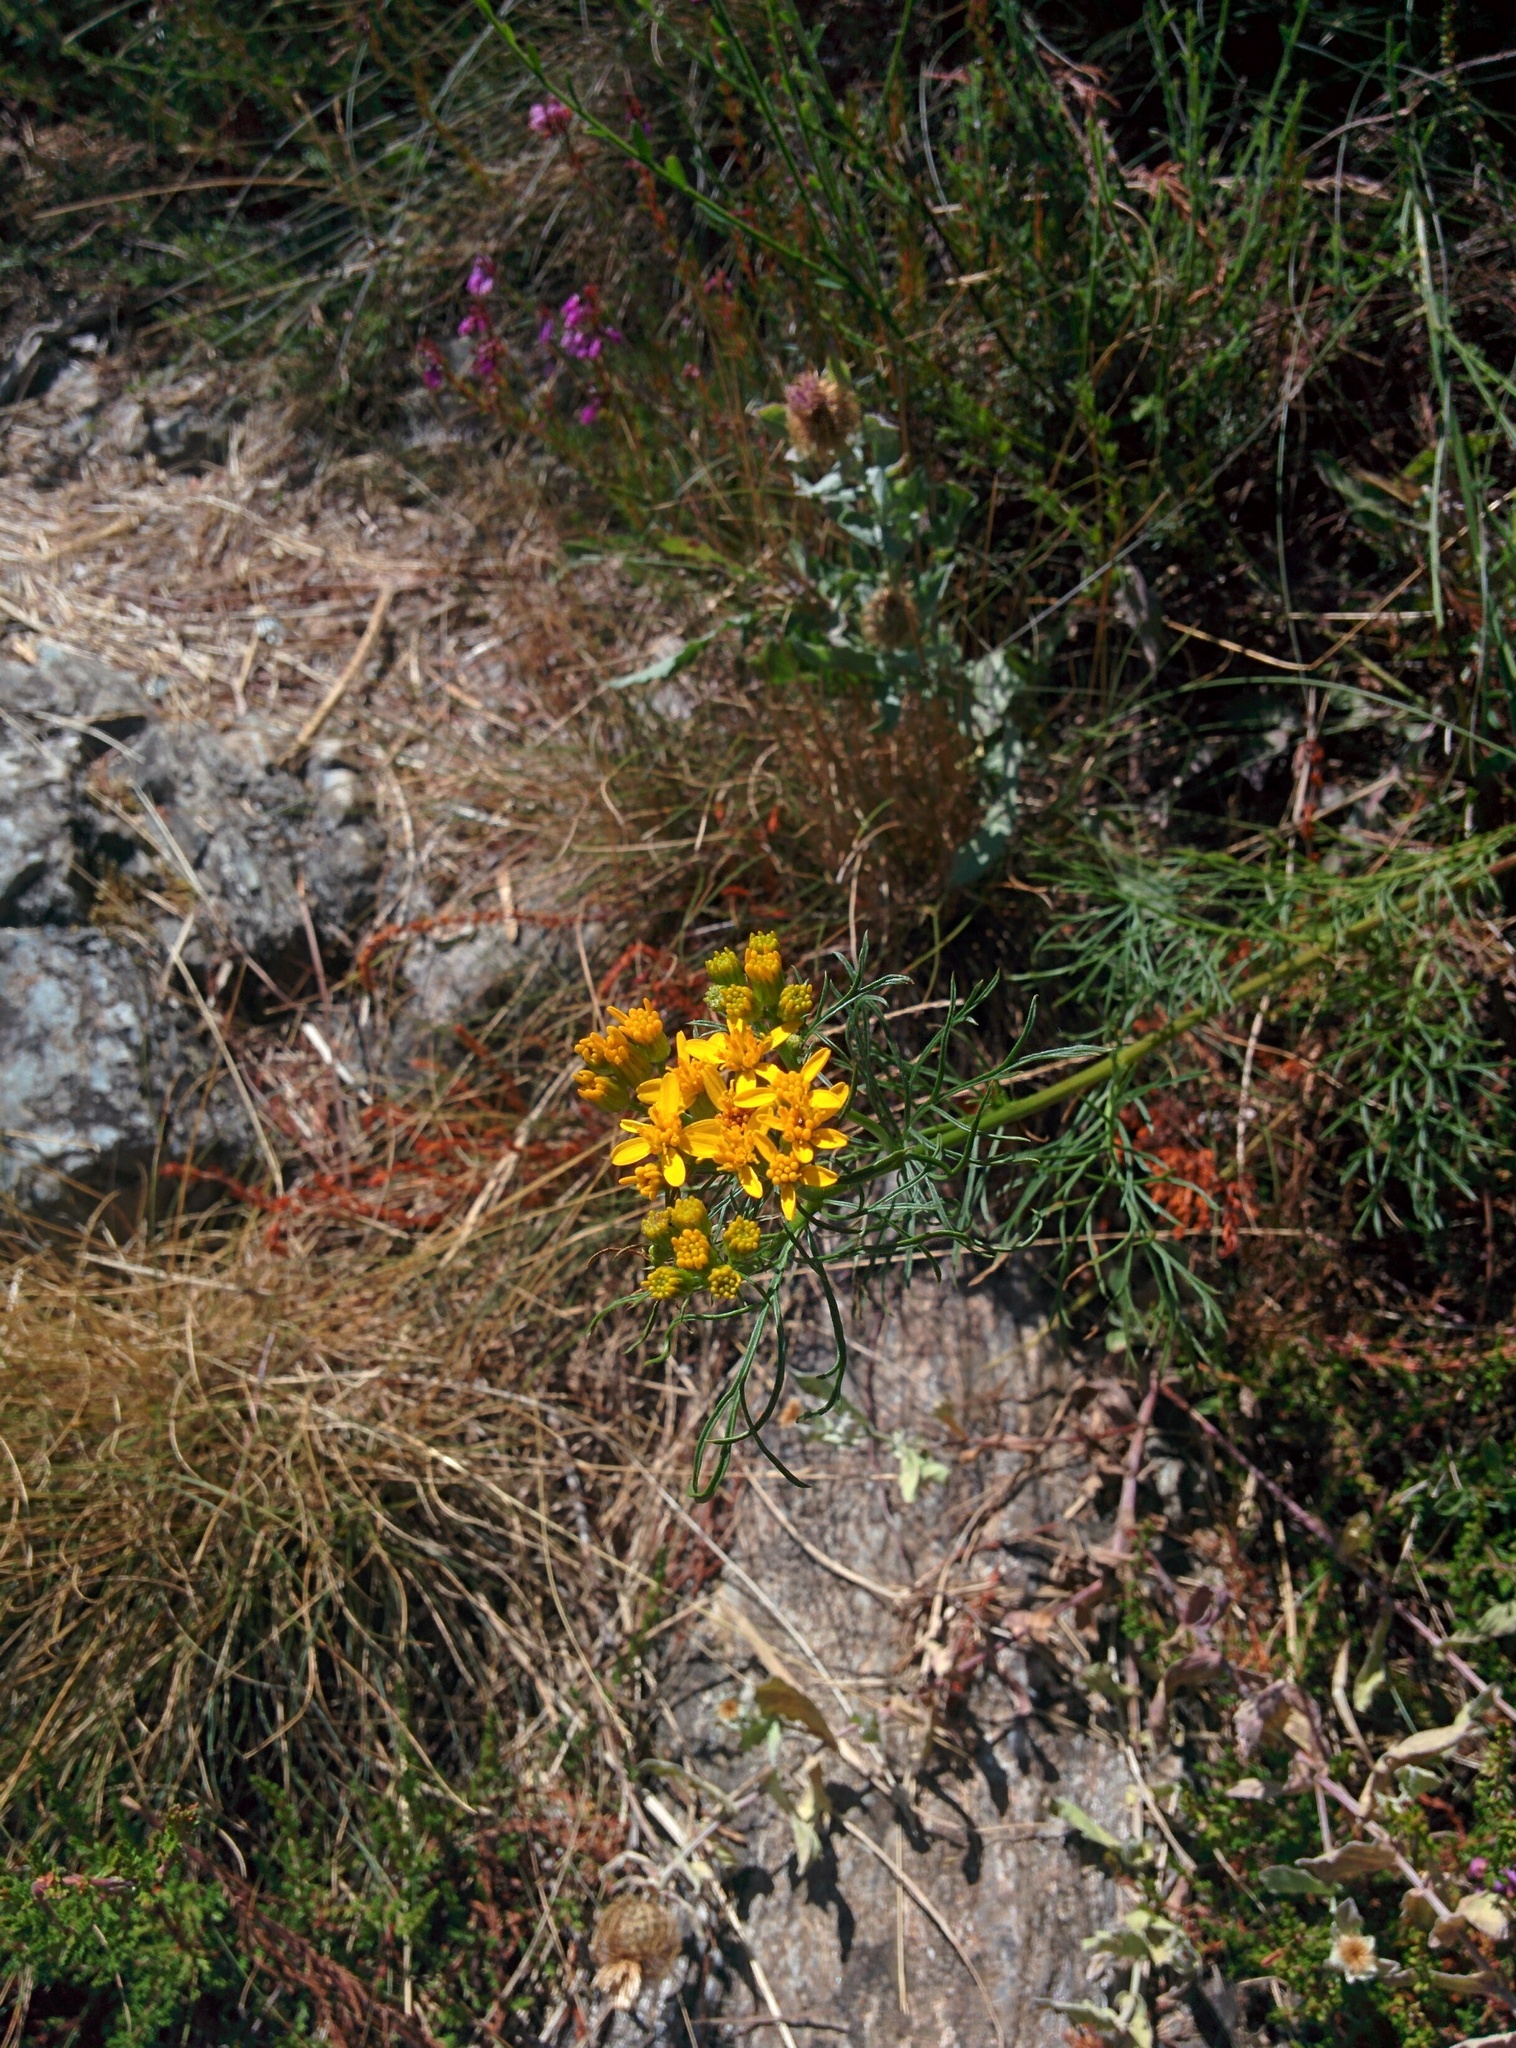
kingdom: Plantae
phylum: Tracheophyta
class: Magnoliopsida
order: Asterales
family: Asteraceae
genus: Jacobaea
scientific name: Jacobaea adonidifolia
